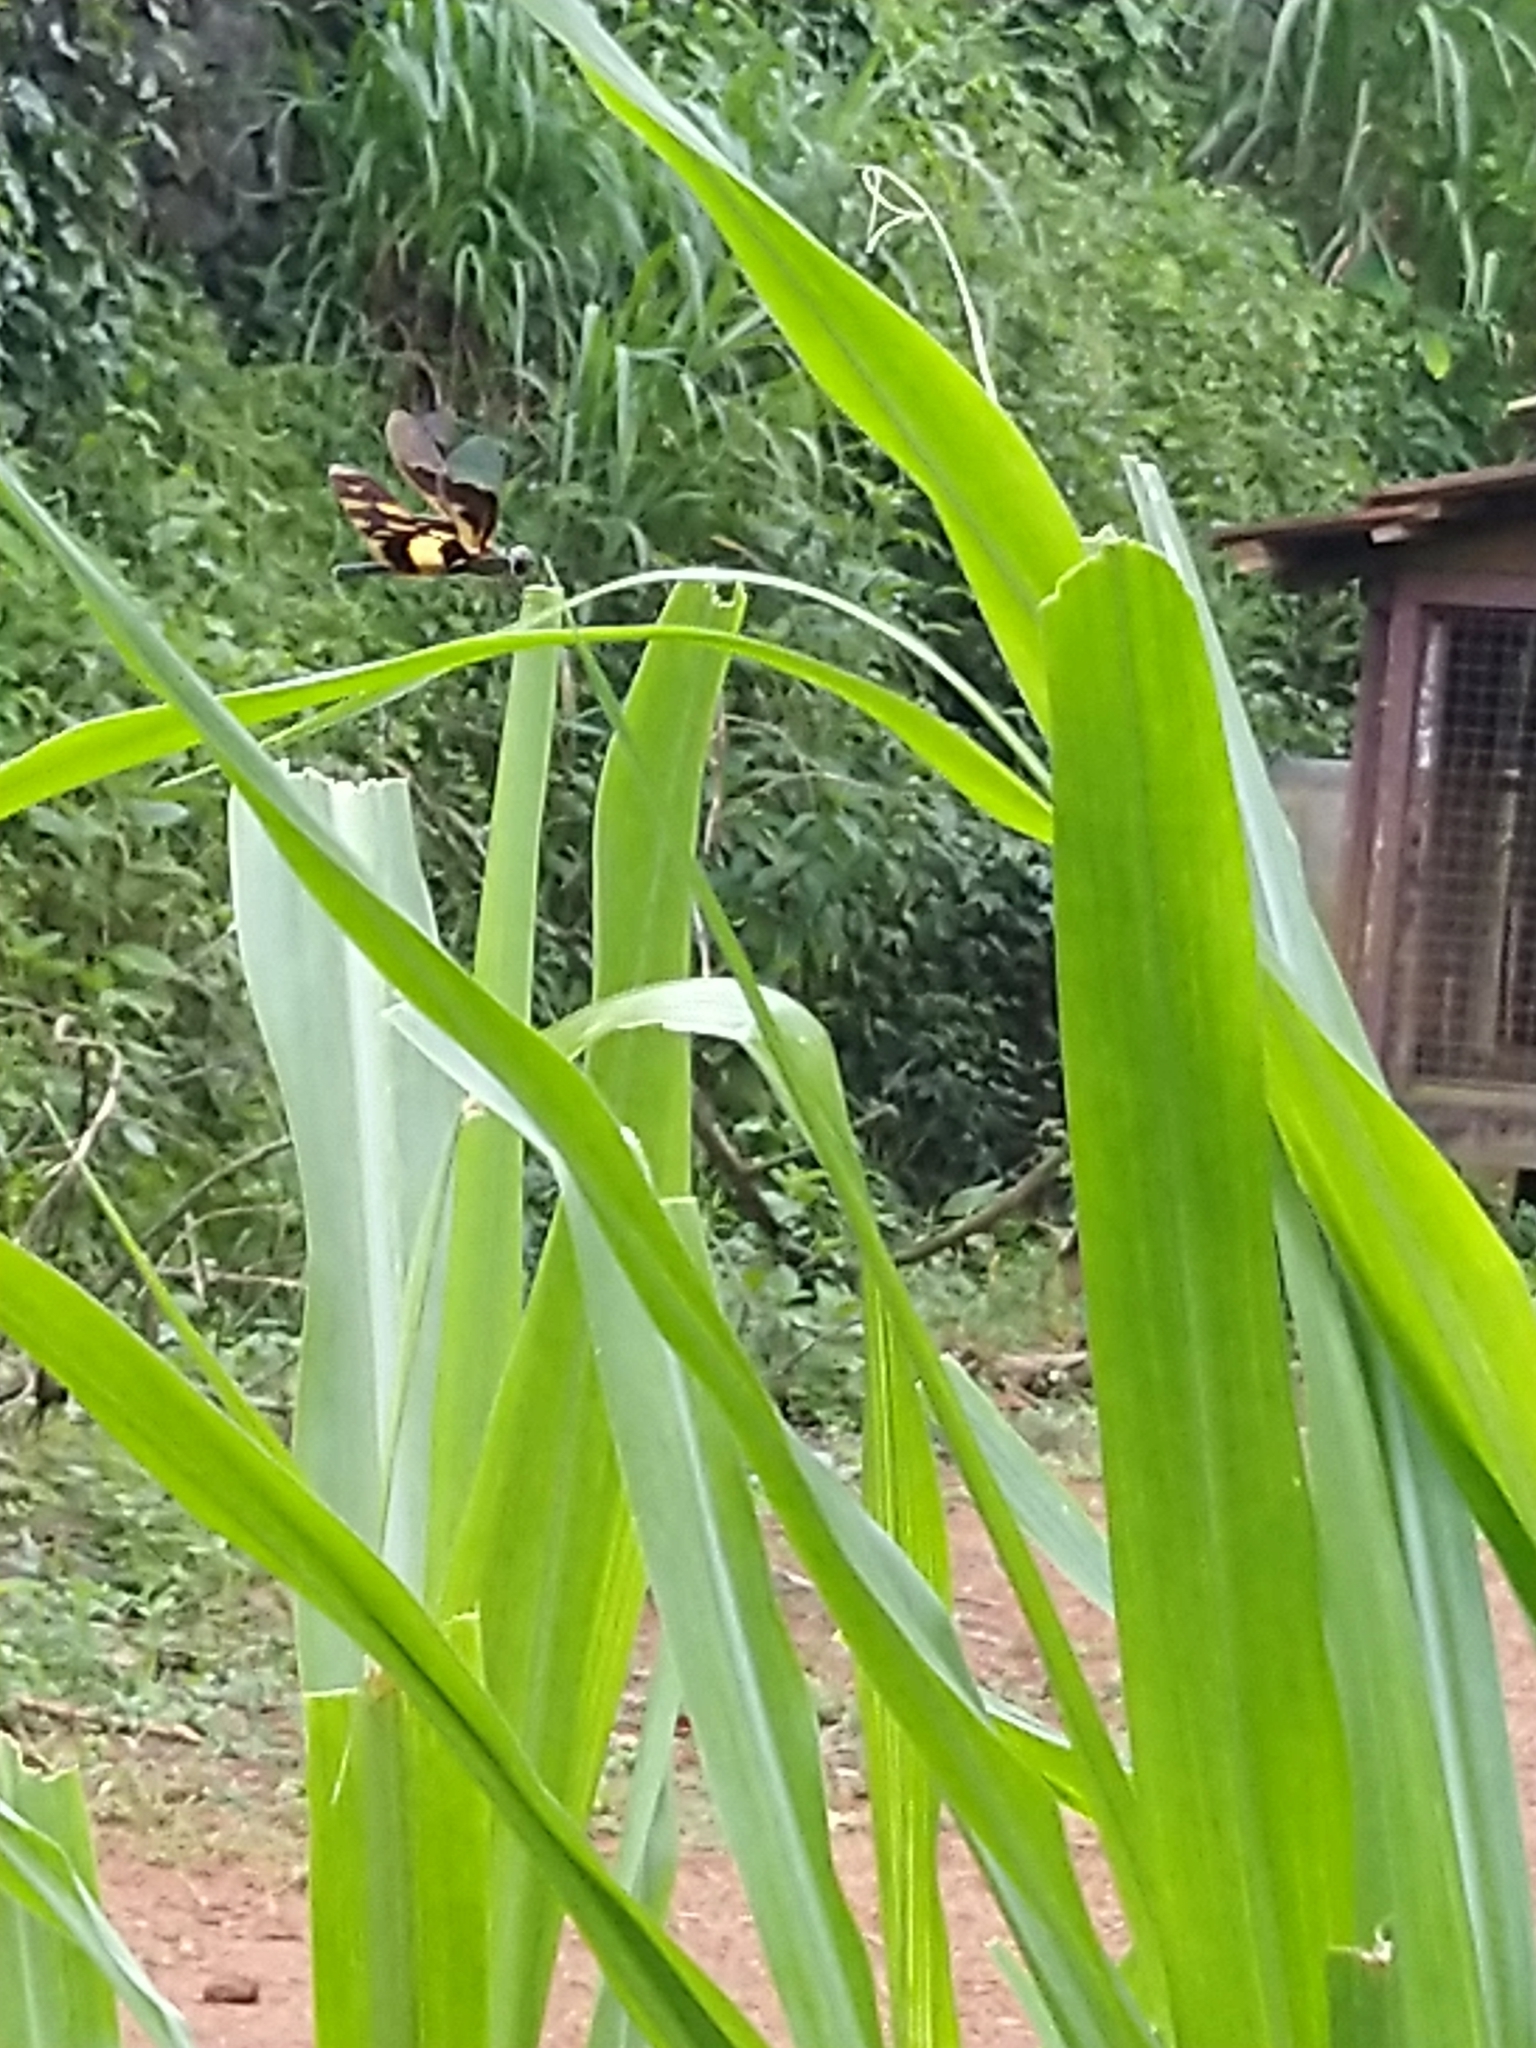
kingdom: Animalia
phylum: Arthropoda
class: Insecta
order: Odonata
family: Libellulidae
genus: Rhyothemis
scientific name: Rhyothemis variegata
